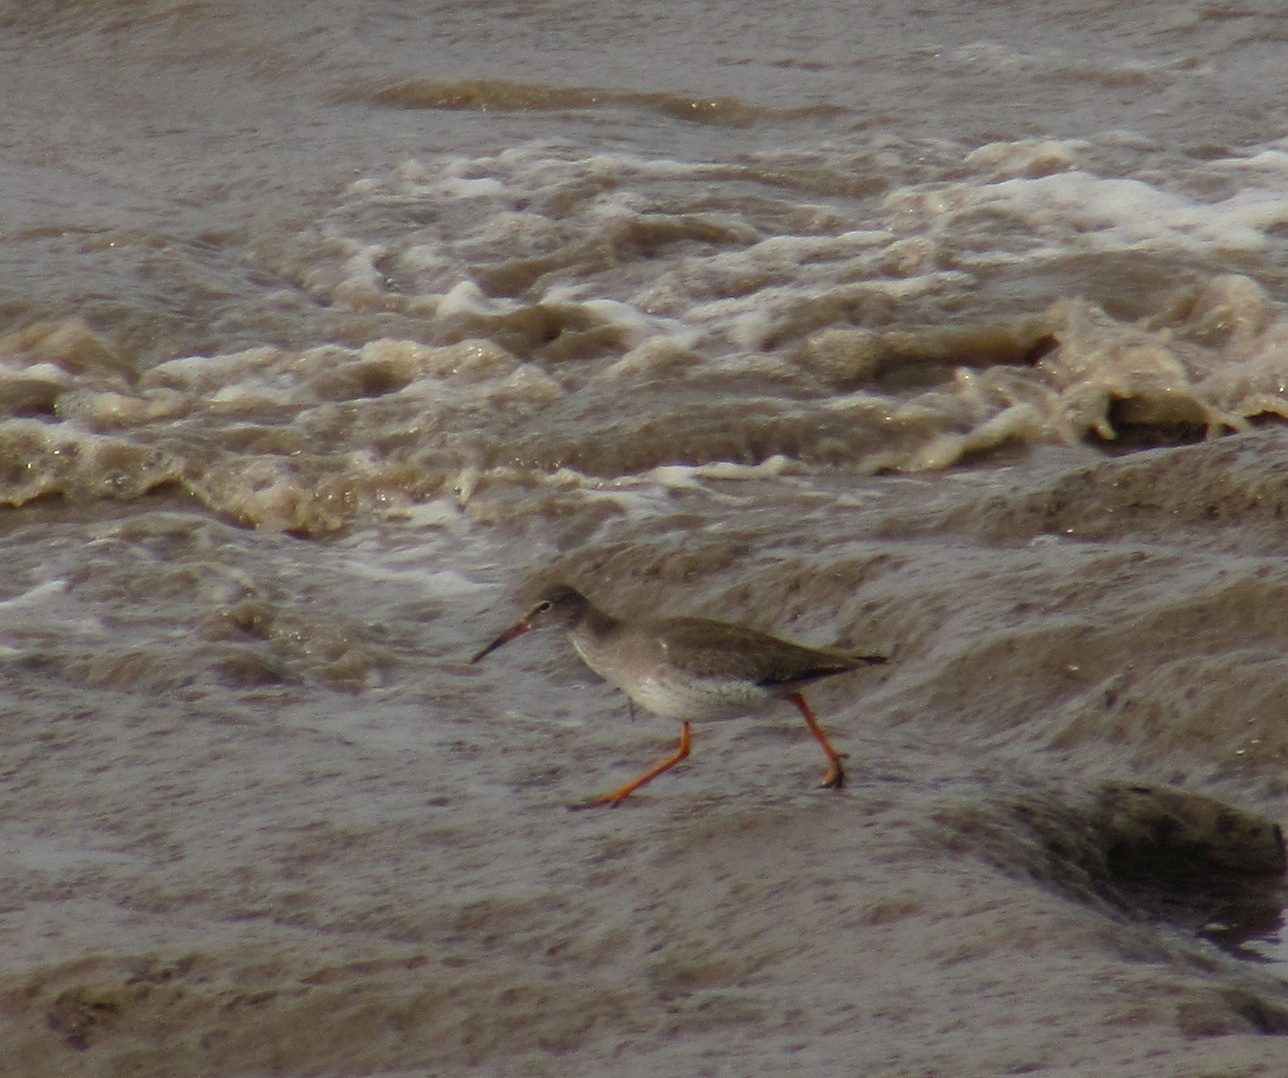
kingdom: Animalia
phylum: Chordata
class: Aves
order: Charadriiformes
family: Scolopacidae
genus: Tringa
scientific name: Tringa totanus
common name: Common redshank
